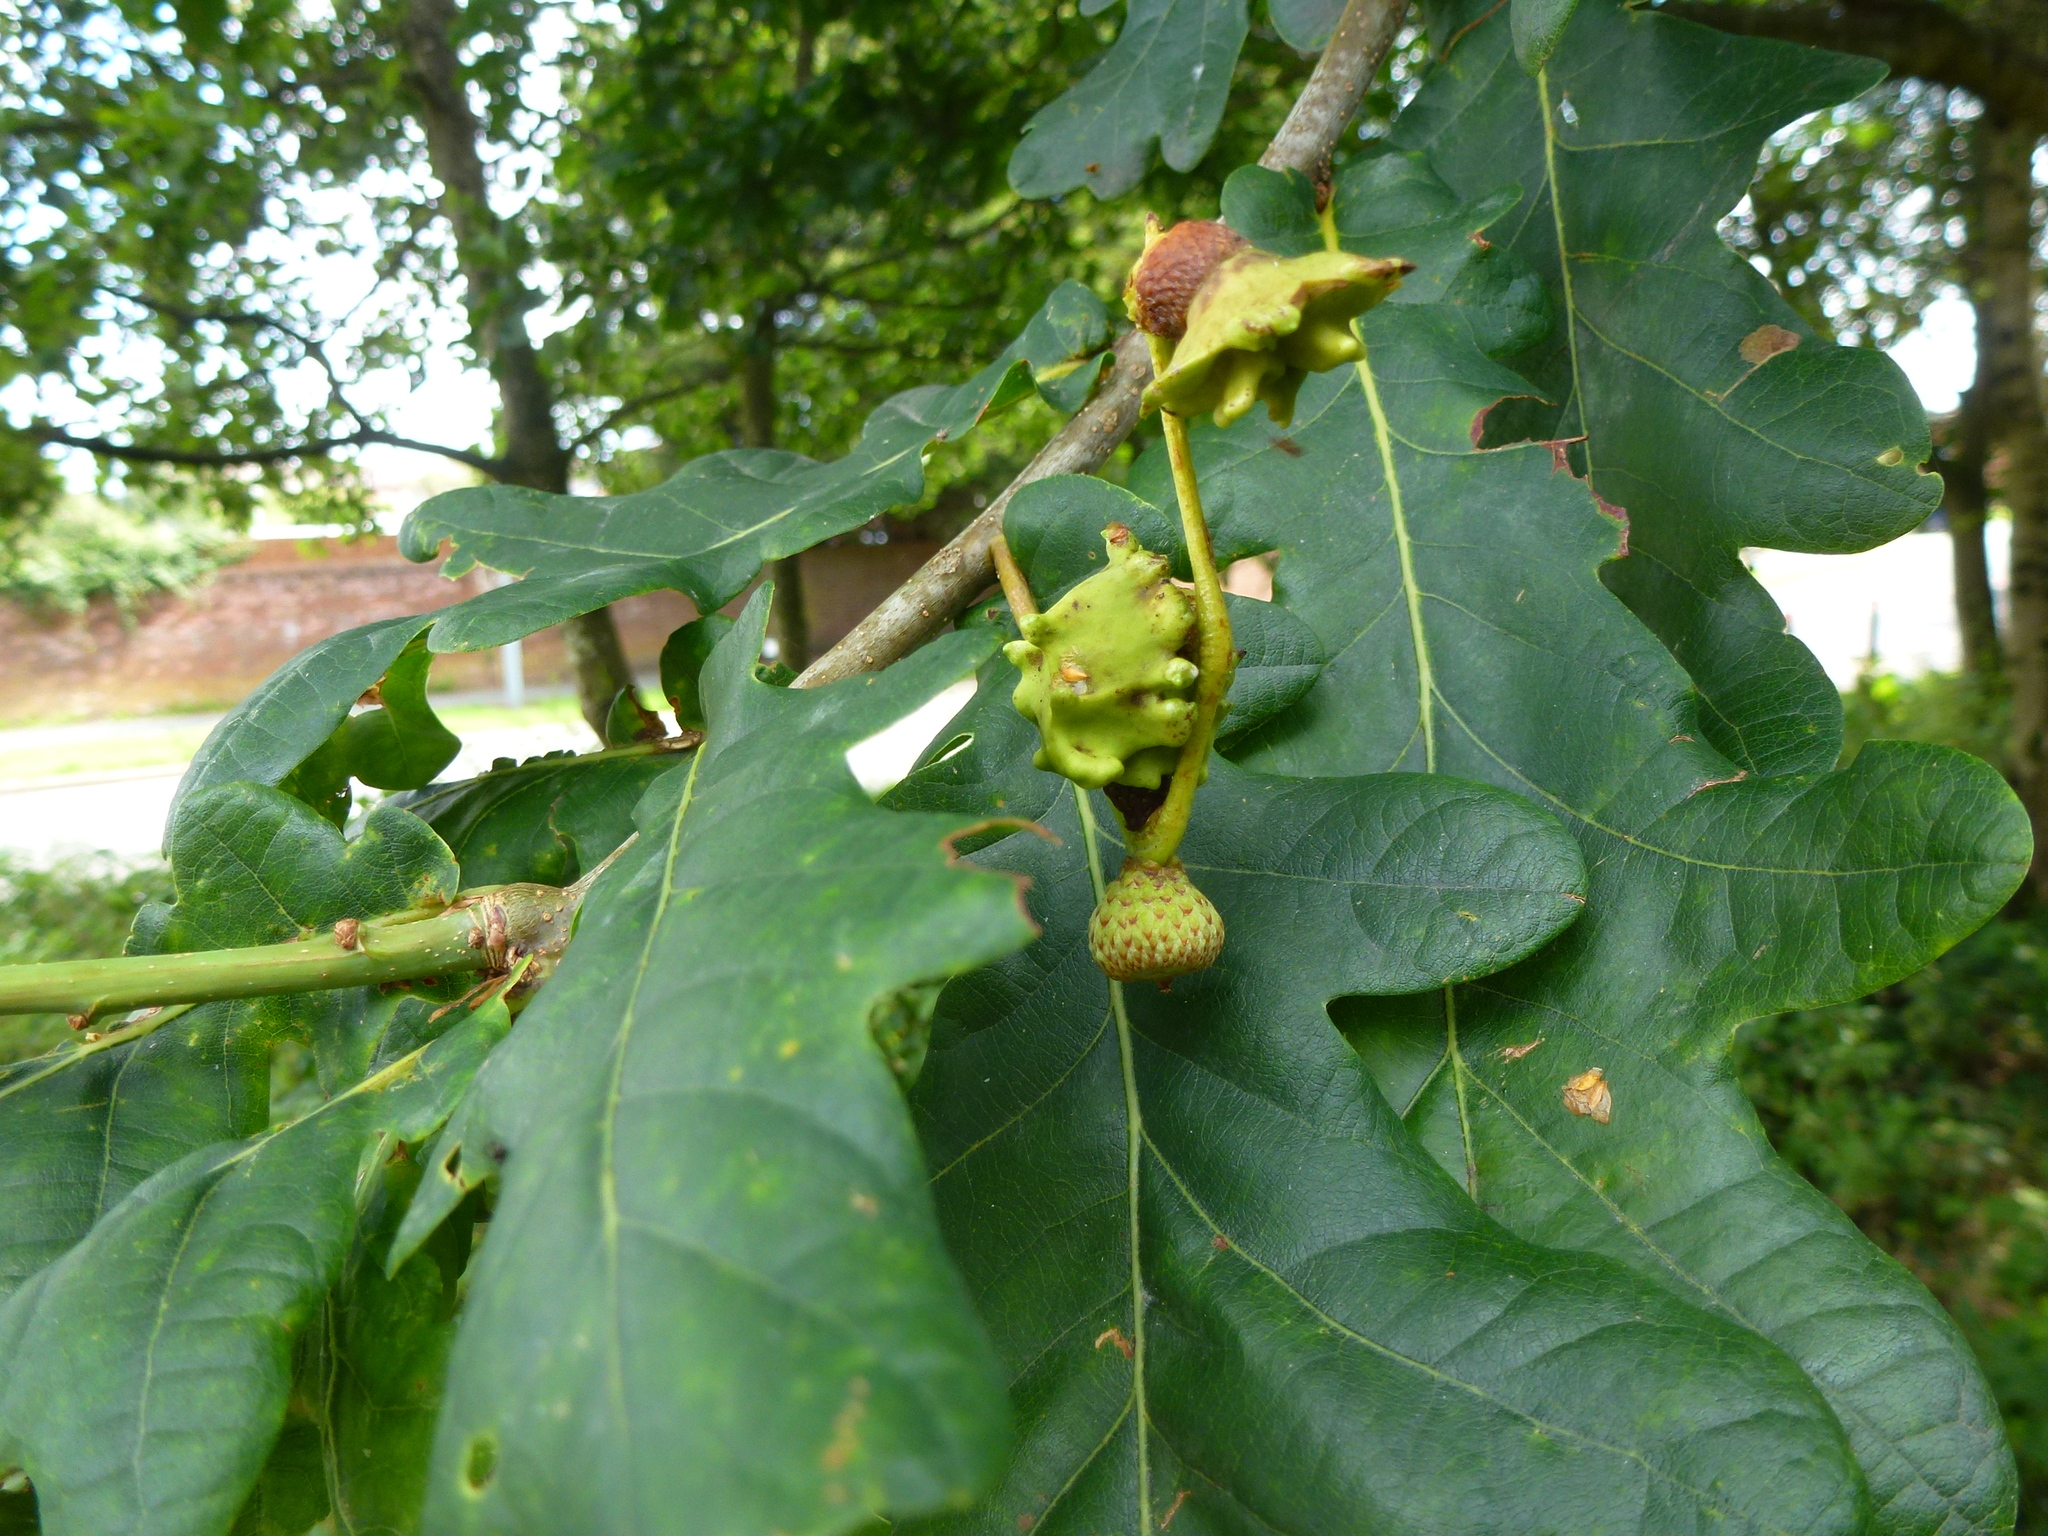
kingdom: Animalia
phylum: Arthropoda
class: Insecta
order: Hymenoptera
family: Cynipidae
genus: Andricus
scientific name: Andricus quercuscalicis
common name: Knopper gall
